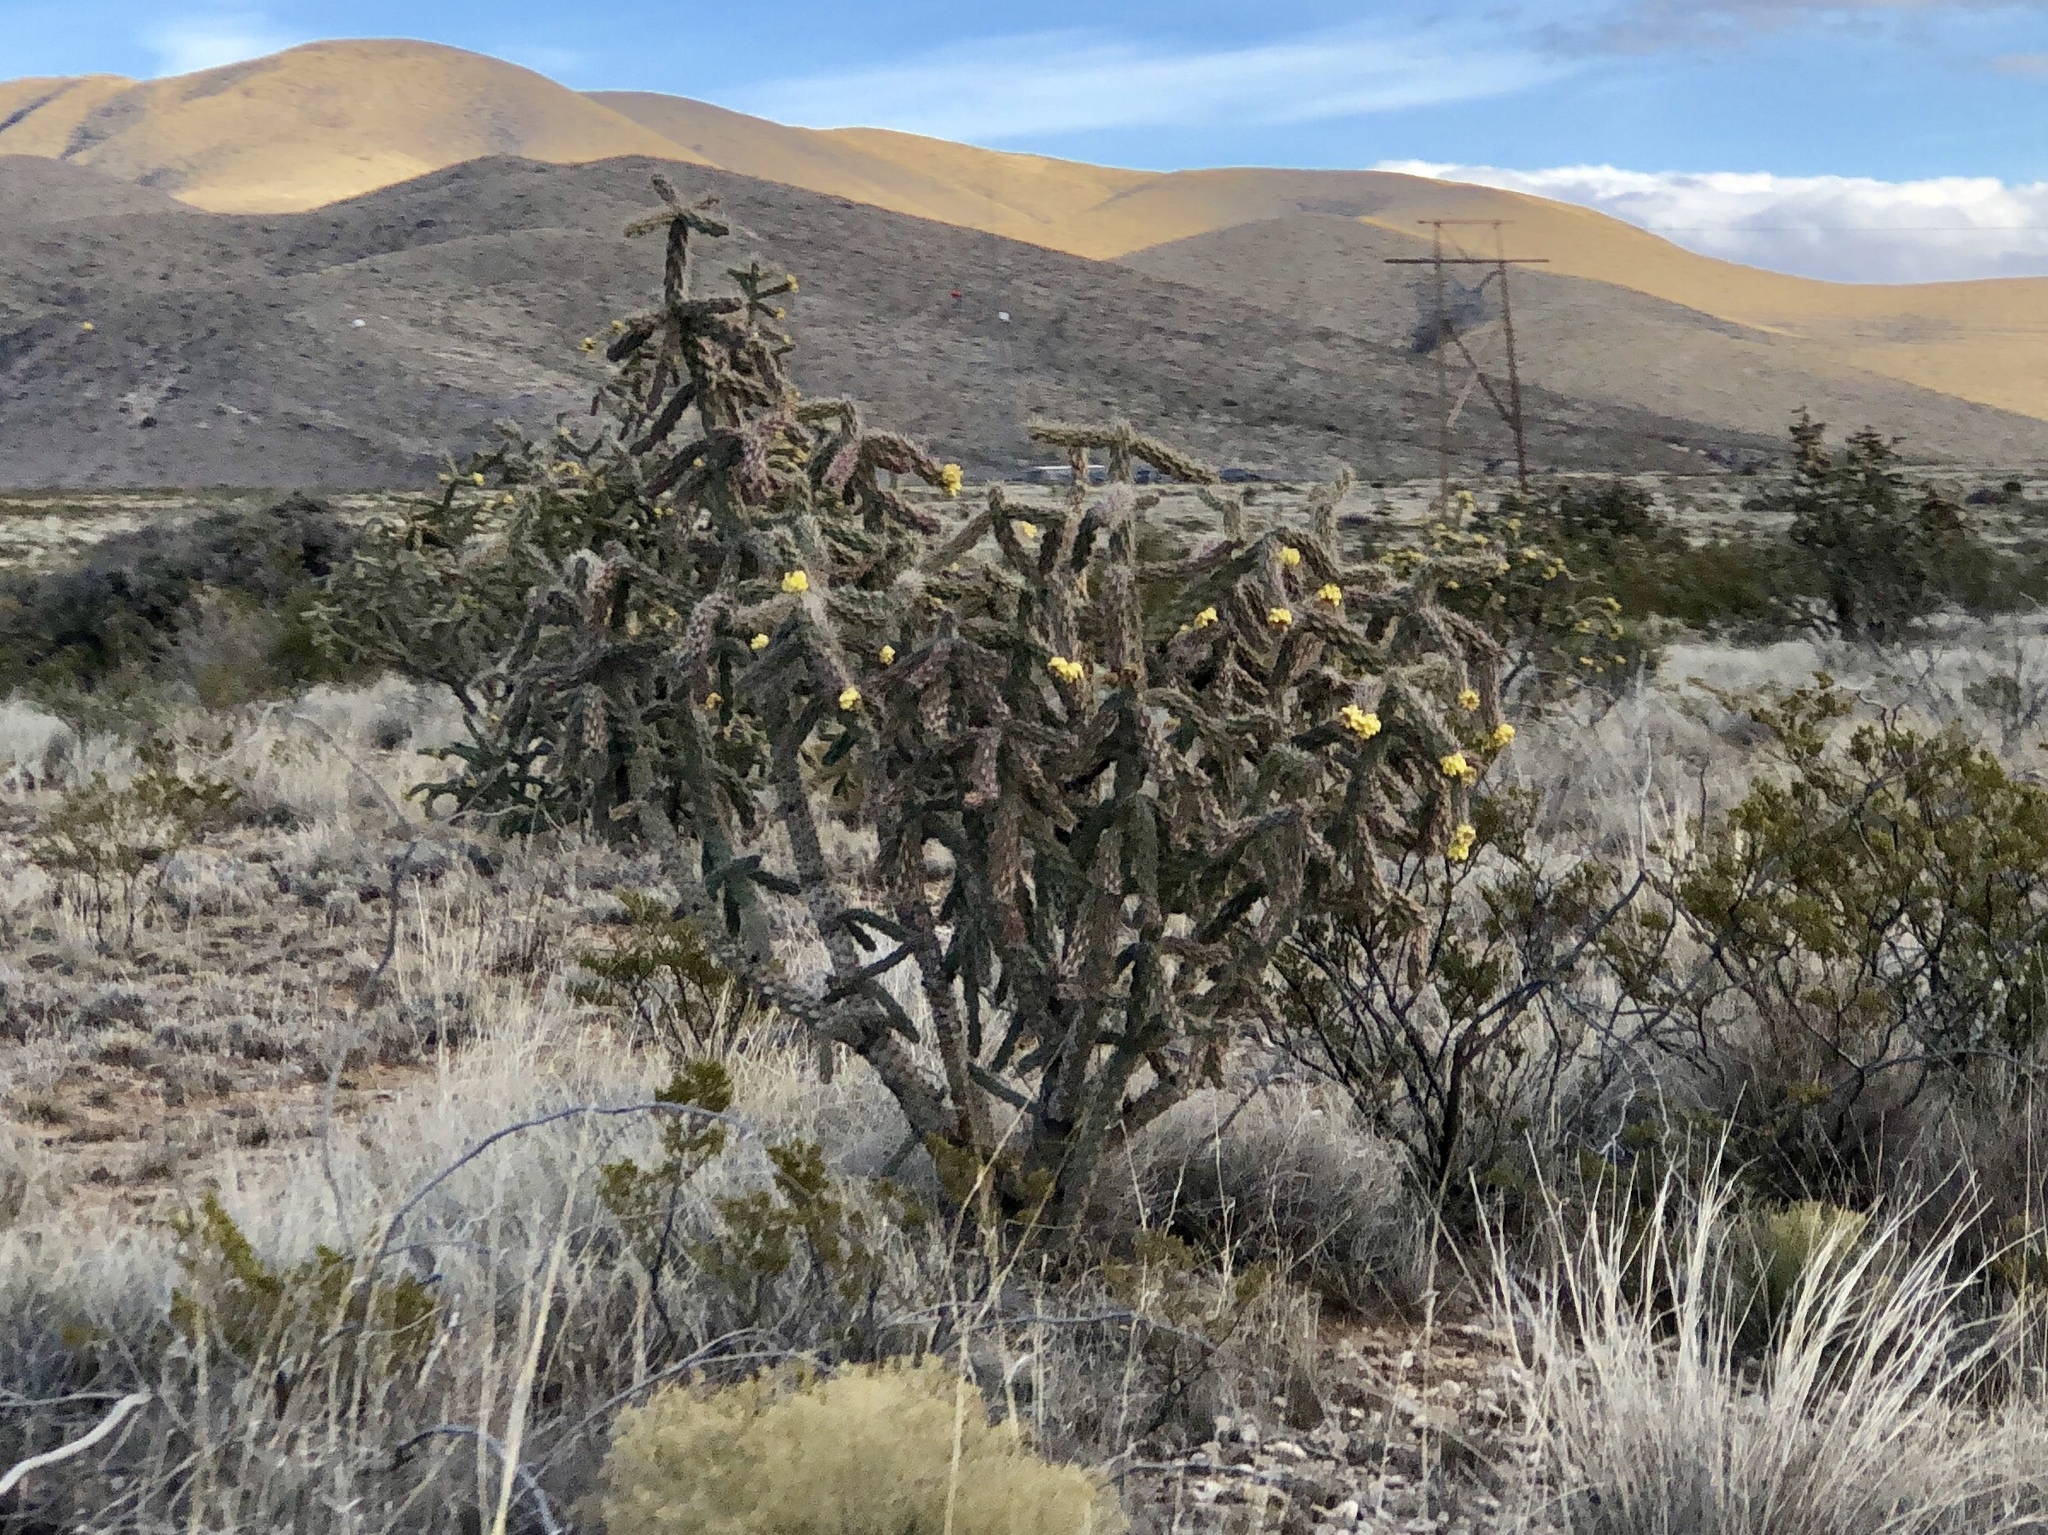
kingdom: Plantae
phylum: Tracheophyta
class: Magnoliopsida
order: Caryophyllales
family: Cactaceae
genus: Cylindropuntia
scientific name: Cylindropuntia imbricata
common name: Candelabrum cactus
